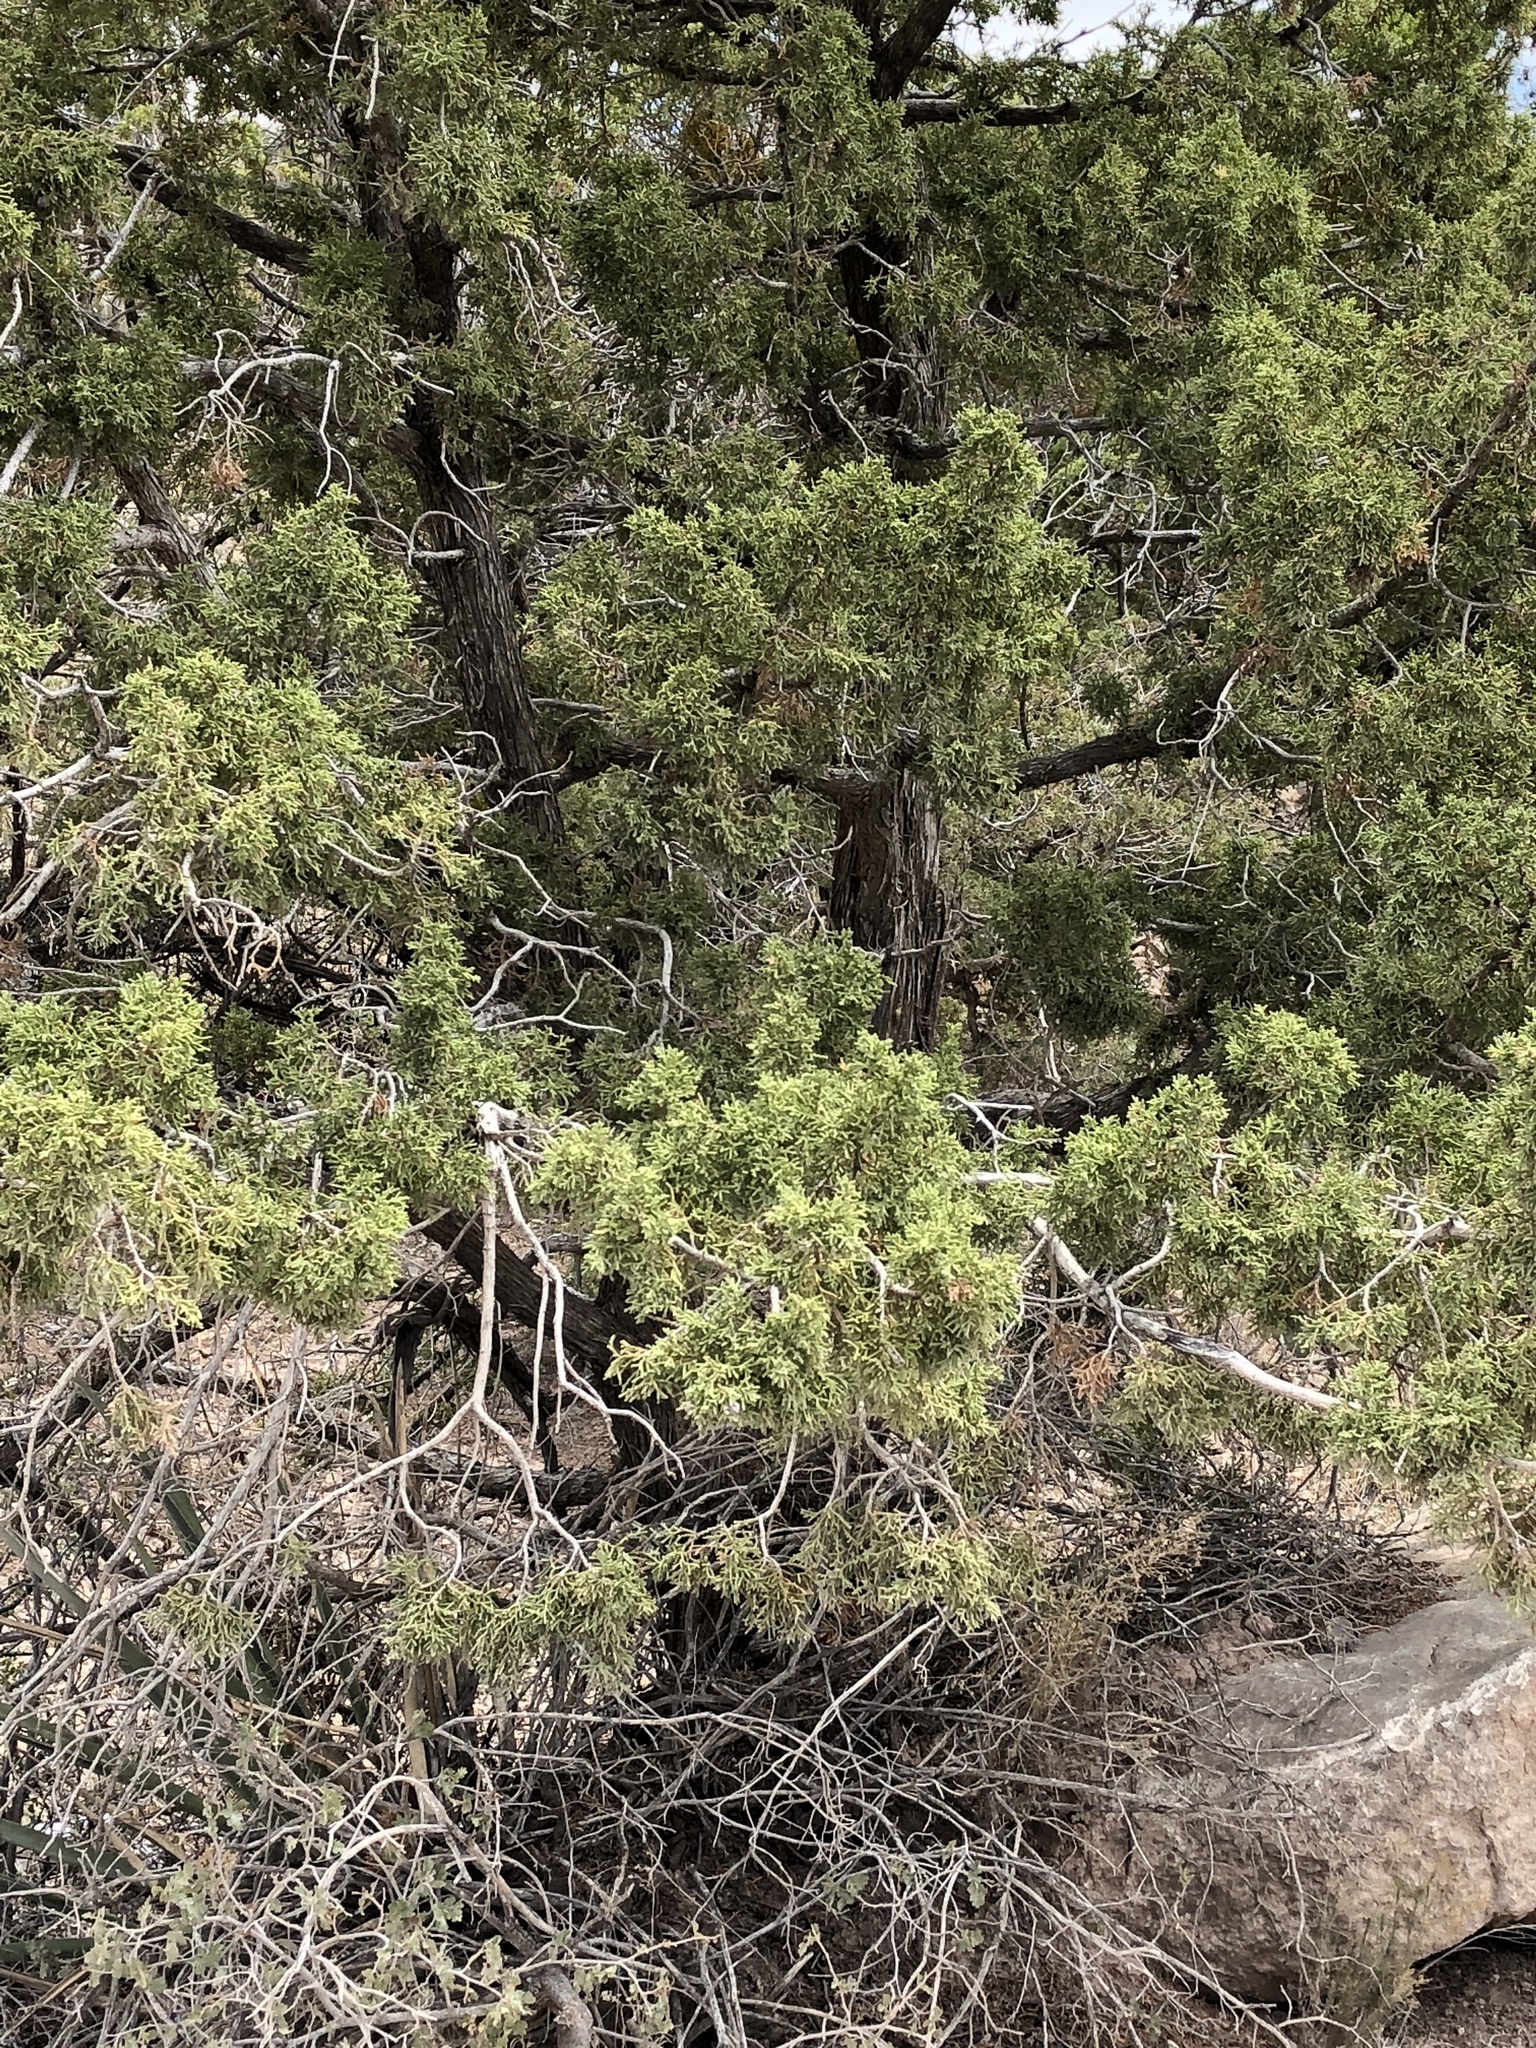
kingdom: Plantae
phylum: Tracheophyta
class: Pinopsida
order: Pinales
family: Cupressaceae
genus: Juniperus
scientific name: Juniperus monosperma
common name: One-seed juniper
